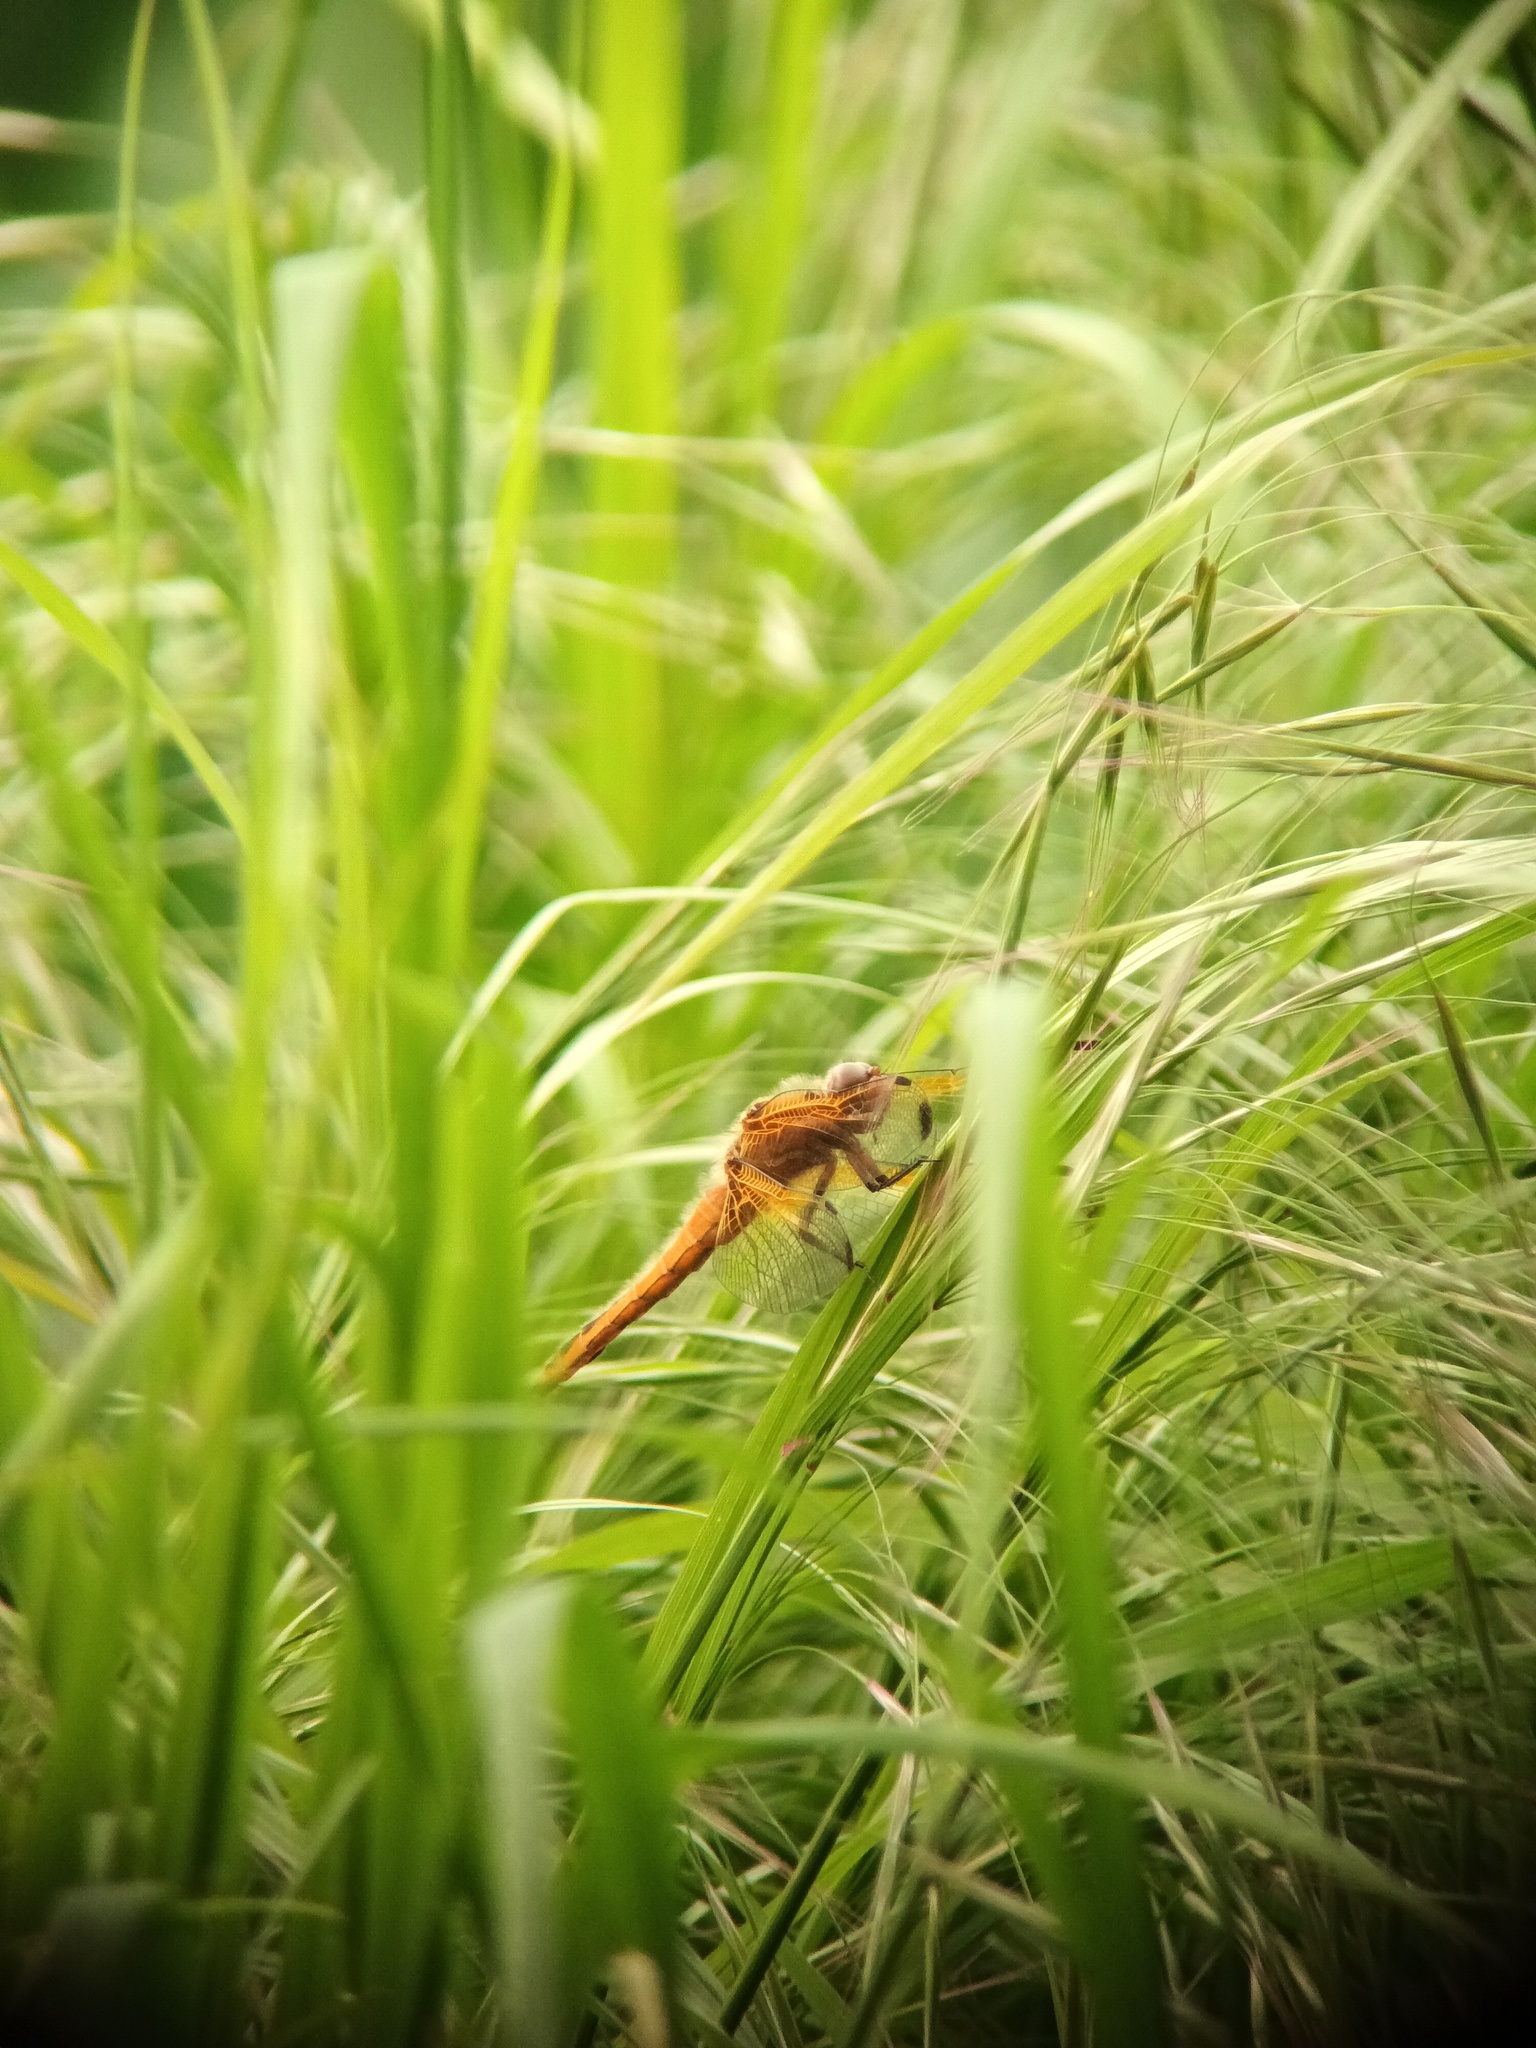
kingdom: Animalia
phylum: Arthropoda
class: Insecta
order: Odonata
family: Libellulidae
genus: Libellula
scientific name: Libellula fulva
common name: Blue chaser
